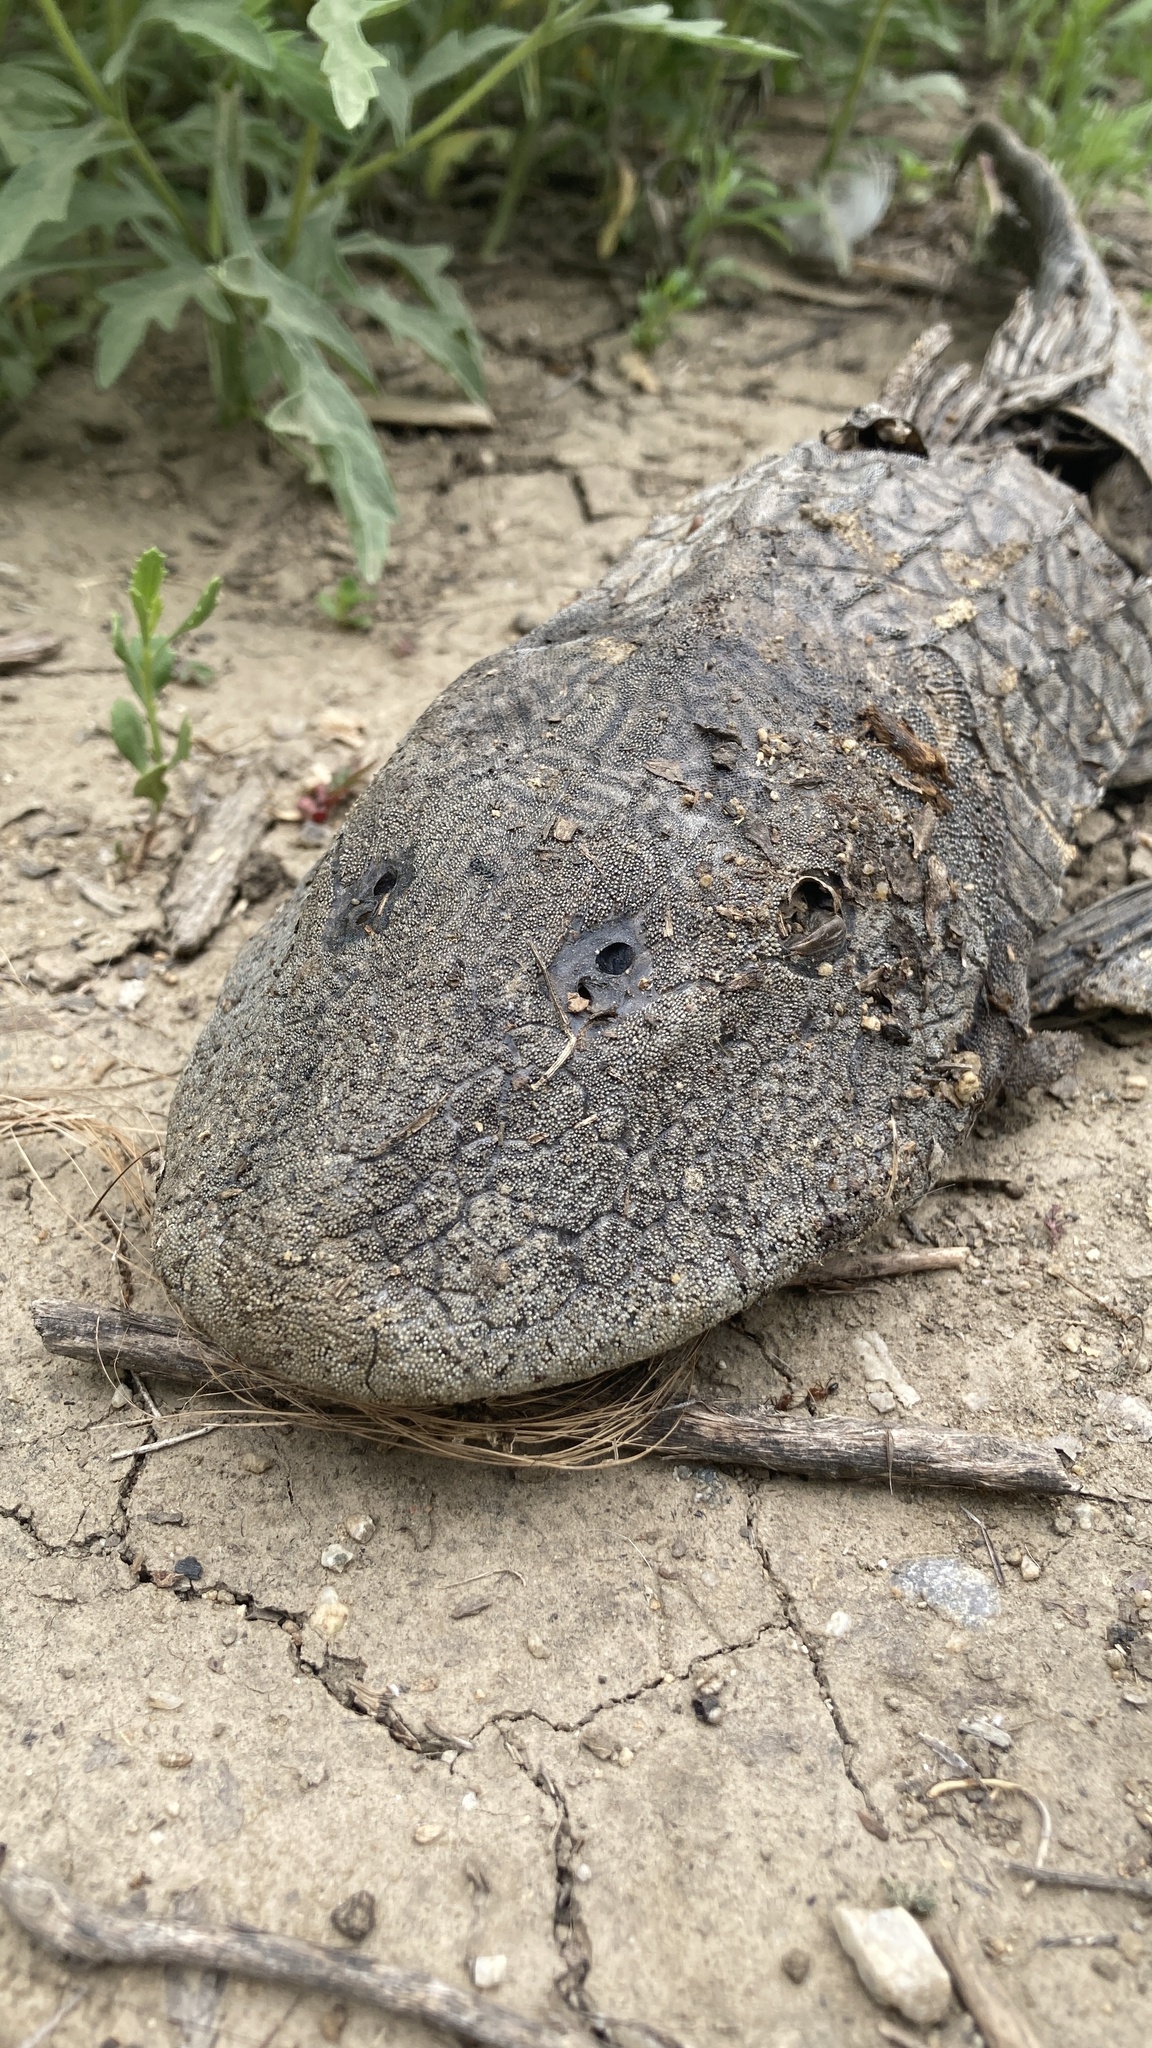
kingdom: Animalia
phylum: Chordata
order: Siluriformes
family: Loricariidae
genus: Pterygoplichthys
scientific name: Pterygoplichthys
